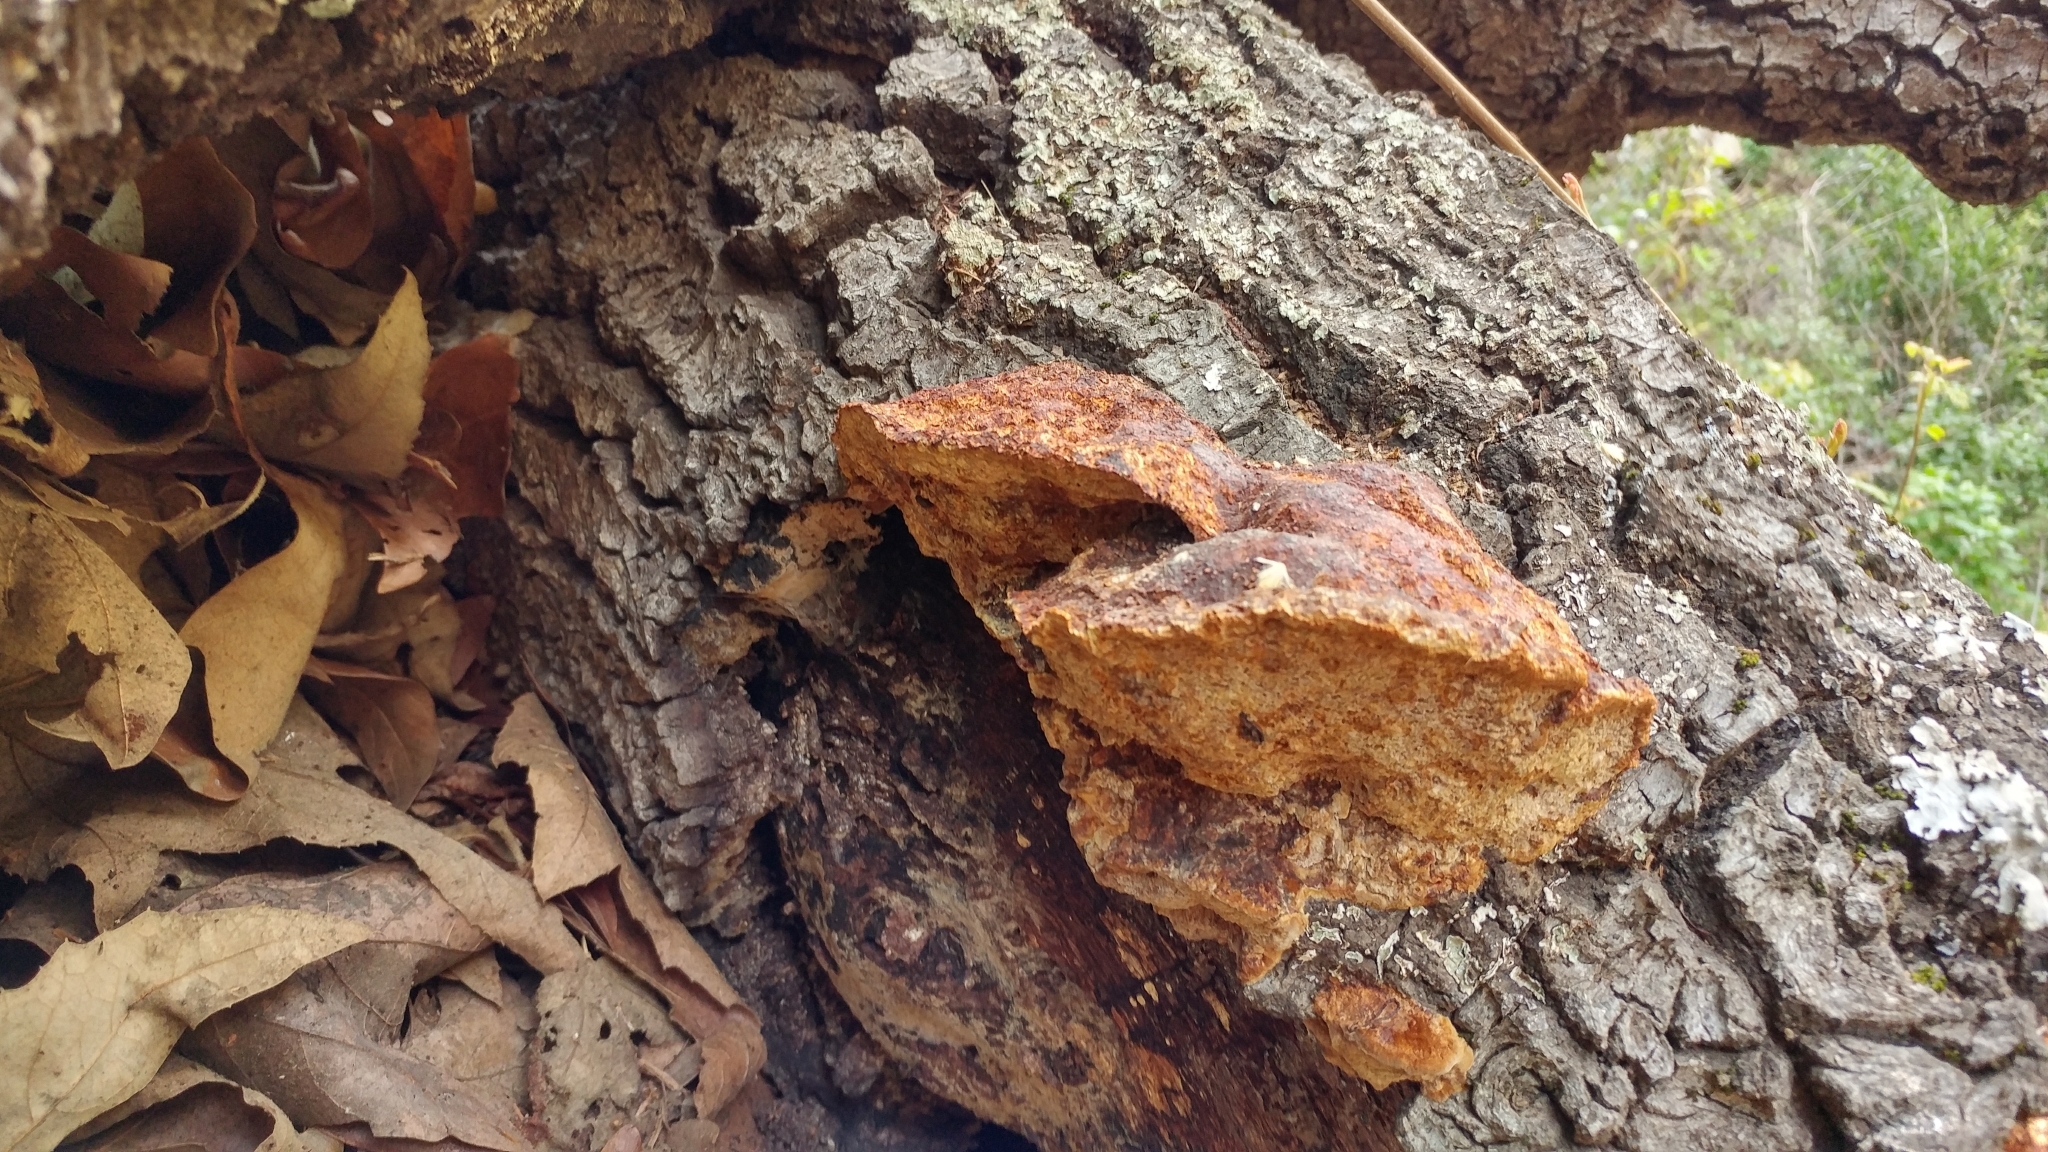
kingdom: Fungi
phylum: Basidiomycota
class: Agaricomycetes
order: Hymenochaetales
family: Hymenochaetaceae
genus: Phellinus
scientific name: Phellinus gilvus
